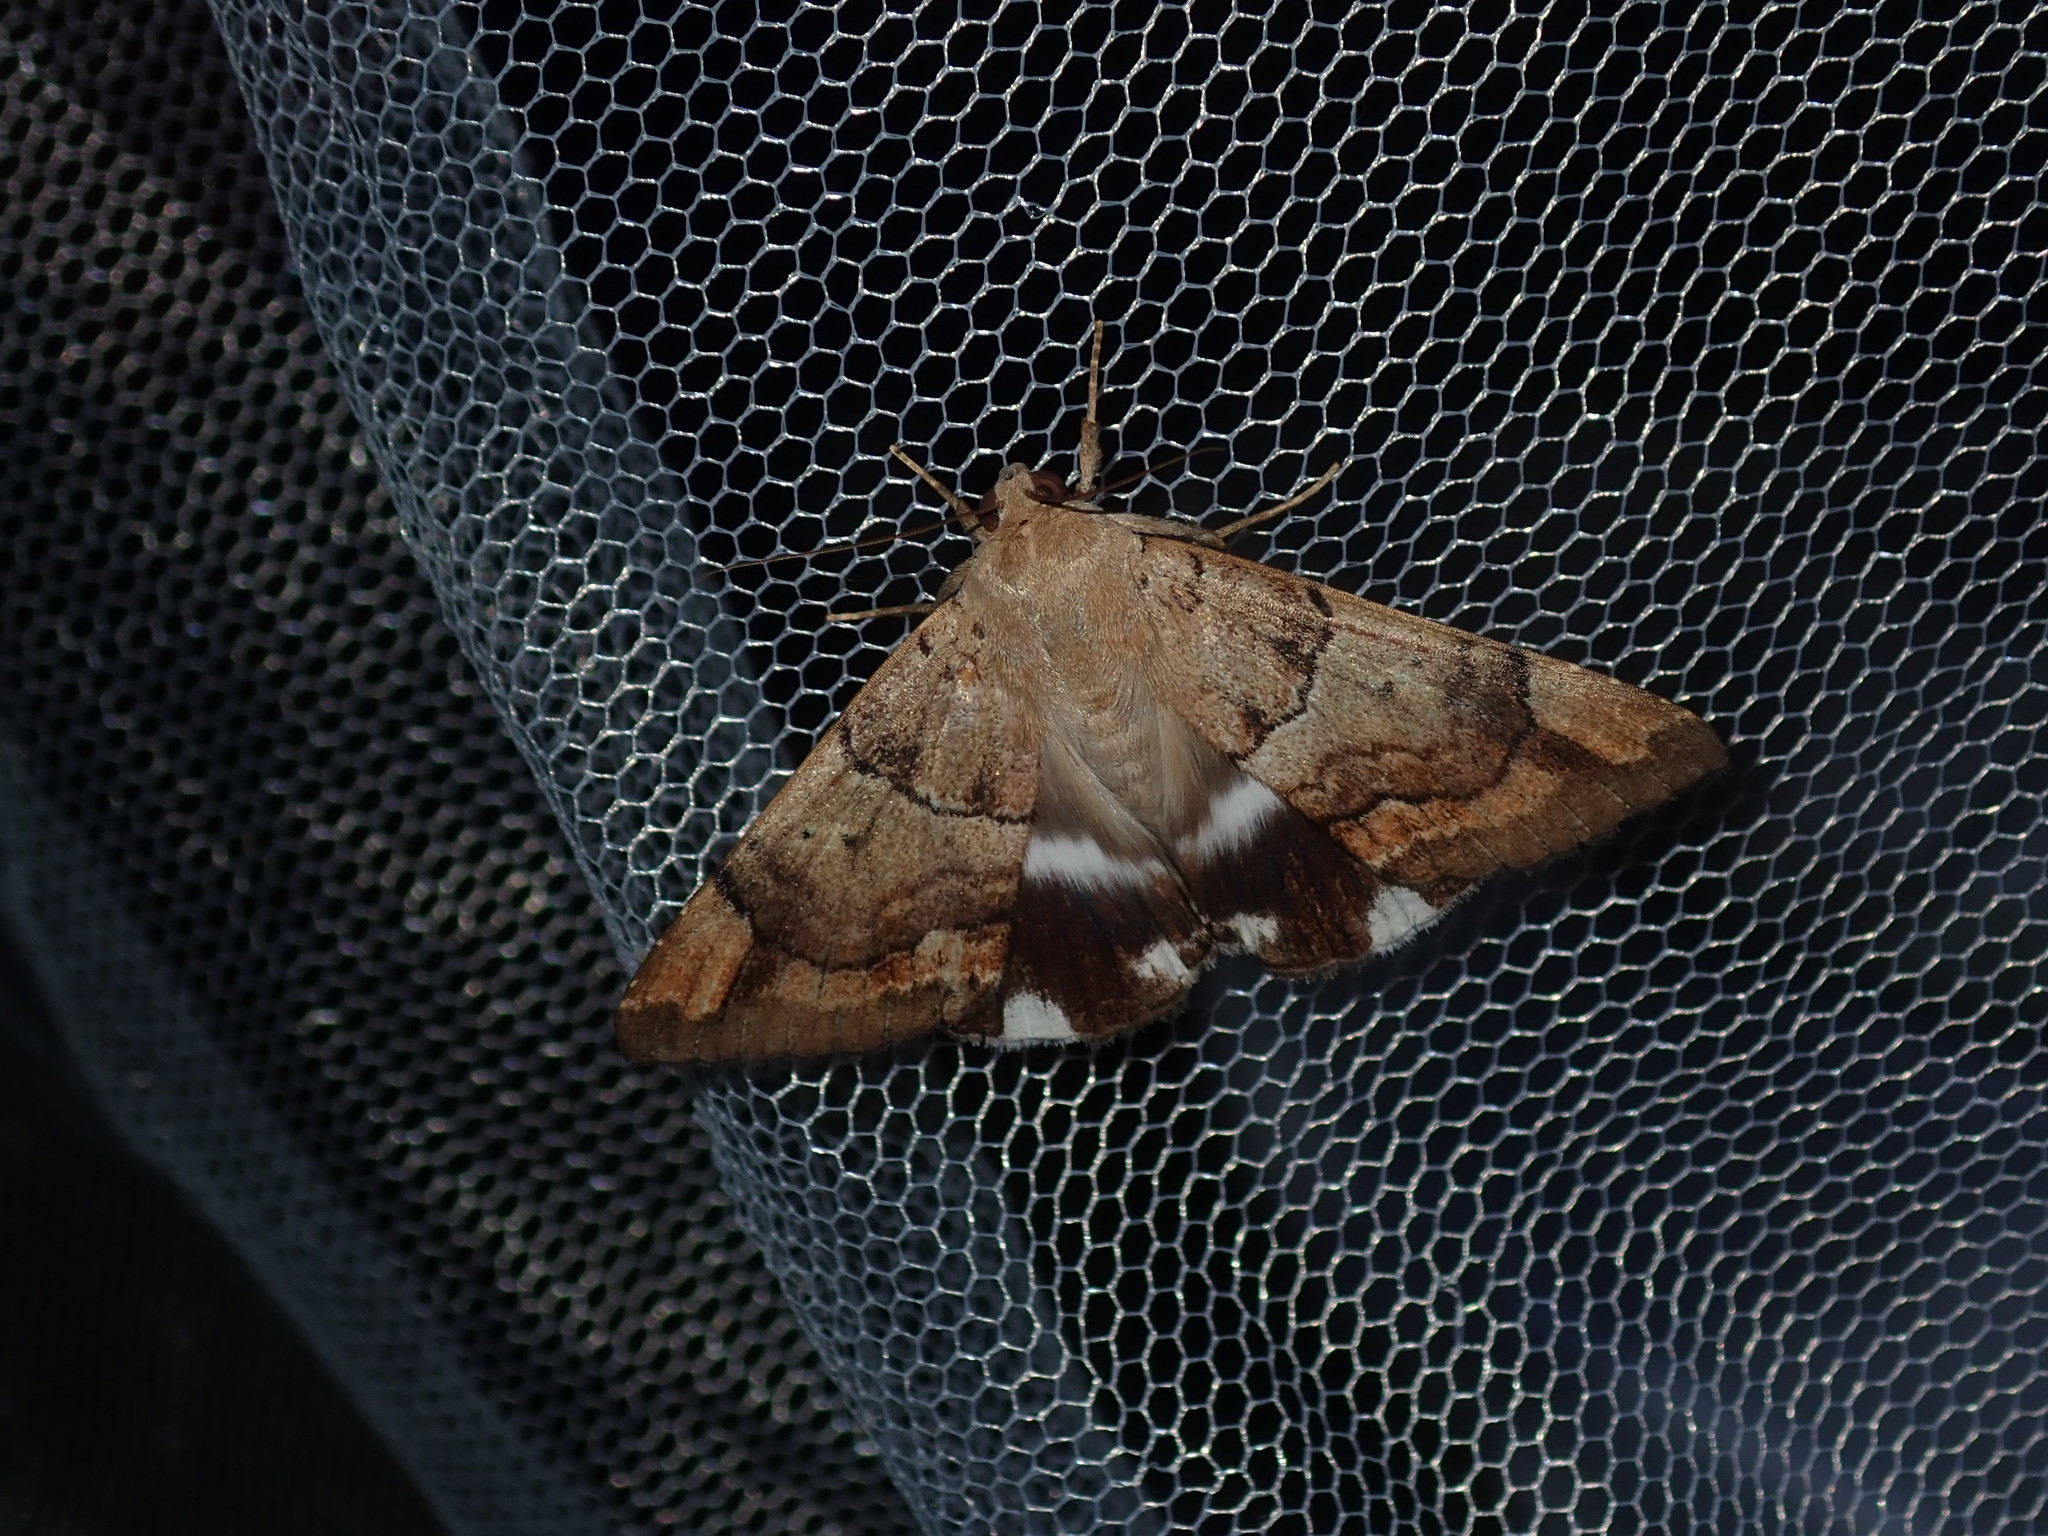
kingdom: Animalia
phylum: Arthropoda
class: Insecta
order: Lepidoptera
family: Erebidae
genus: Achaea
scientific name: Achaea janata
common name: Croton caterpillar
